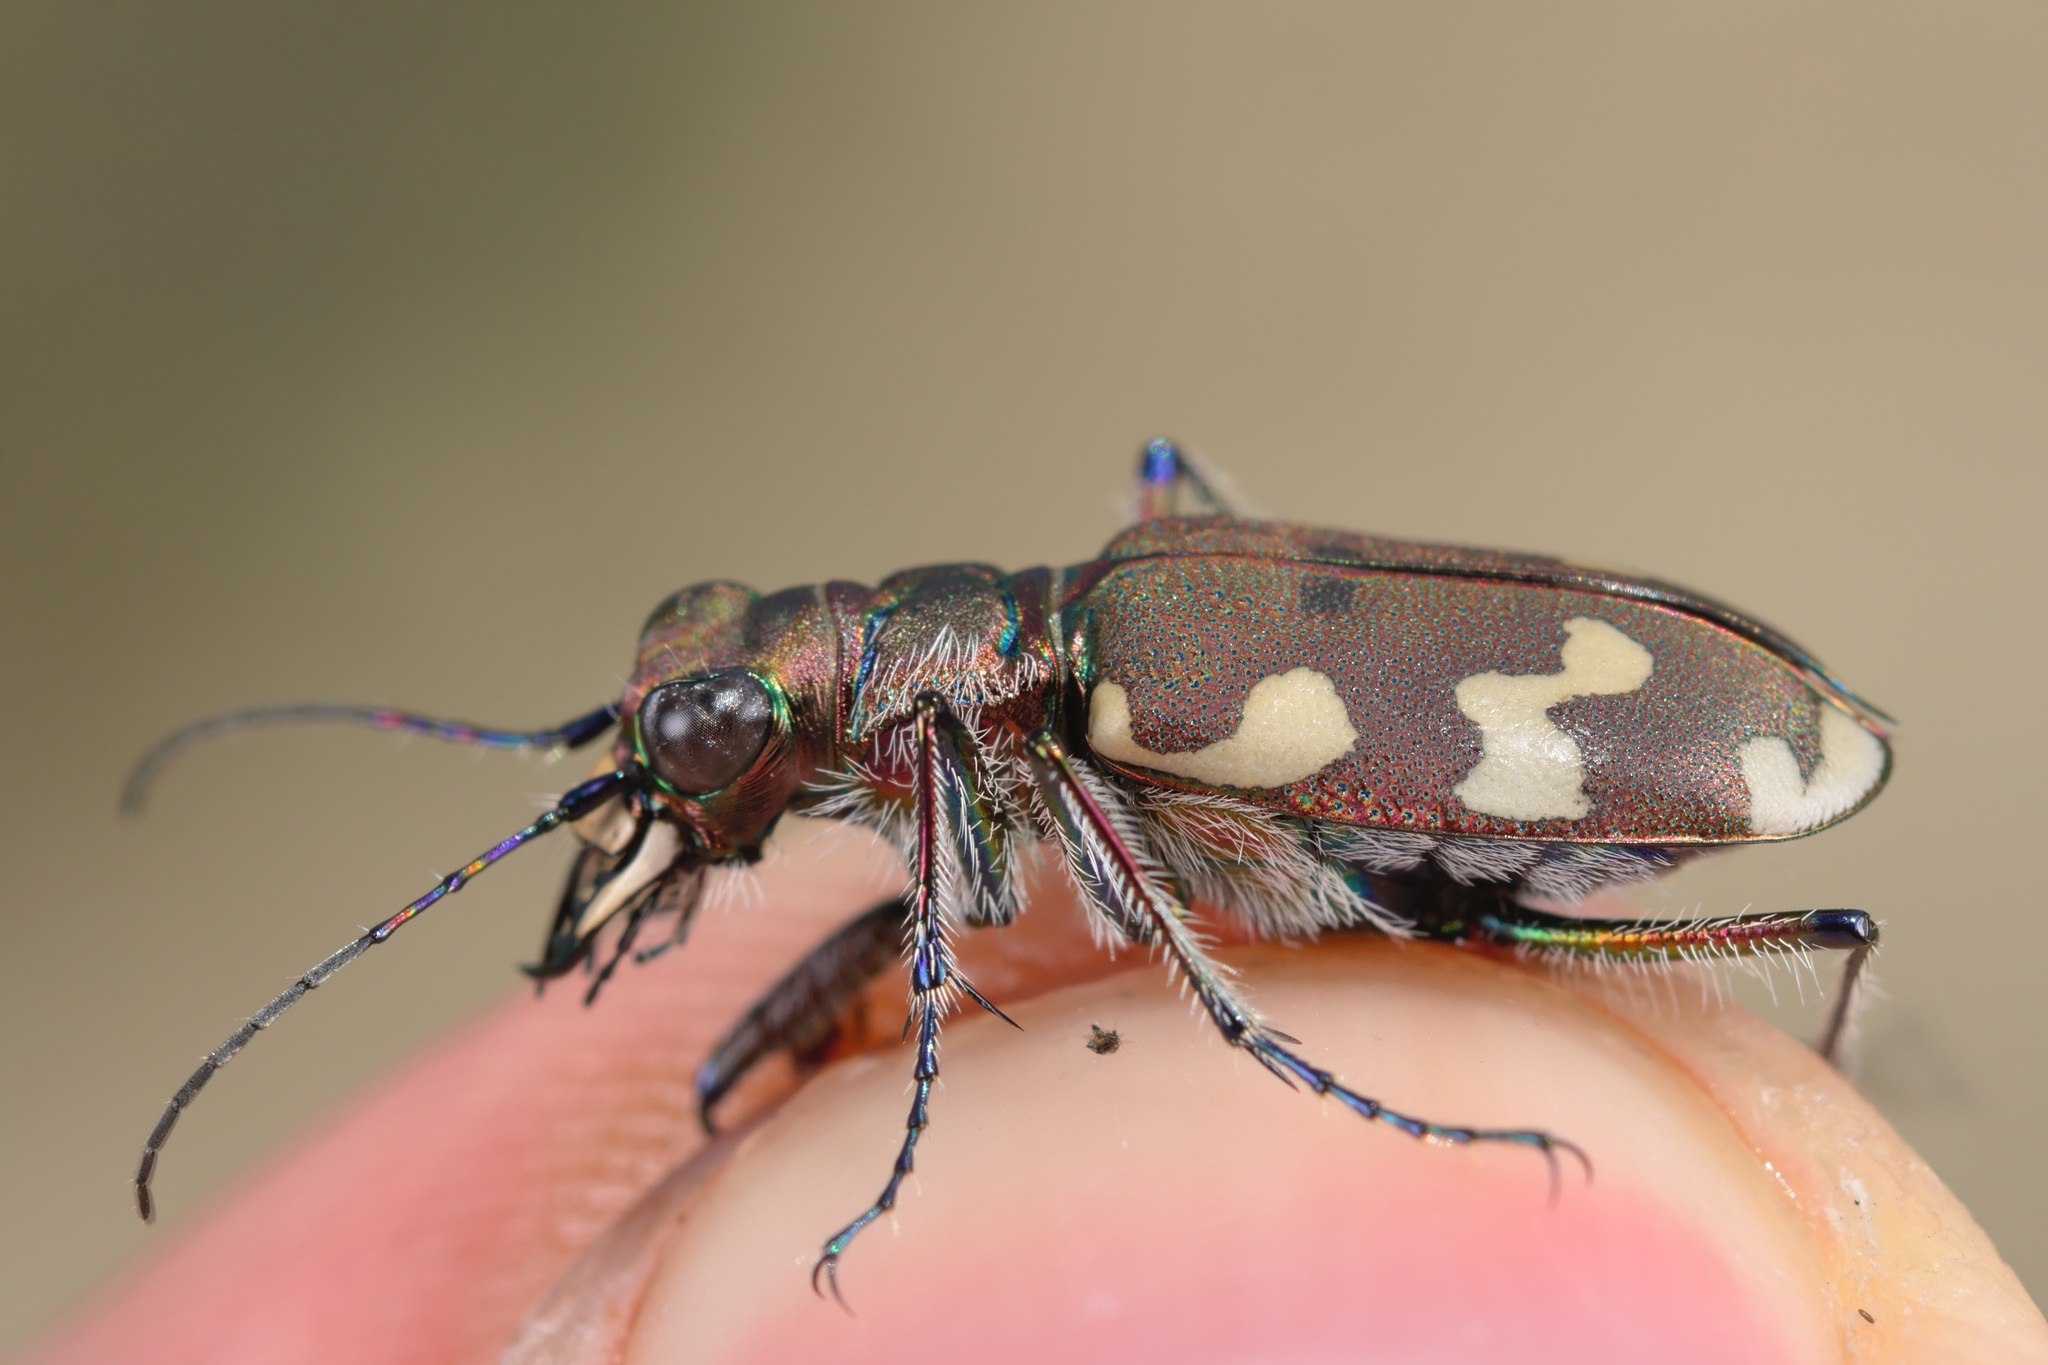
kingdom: Animalia
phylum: Arthropoda
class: Insecta
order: Coleoptera
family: Carabidae
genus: Cicindela
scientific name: Cicindela hybrida
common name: Northern dune tiger beetle
